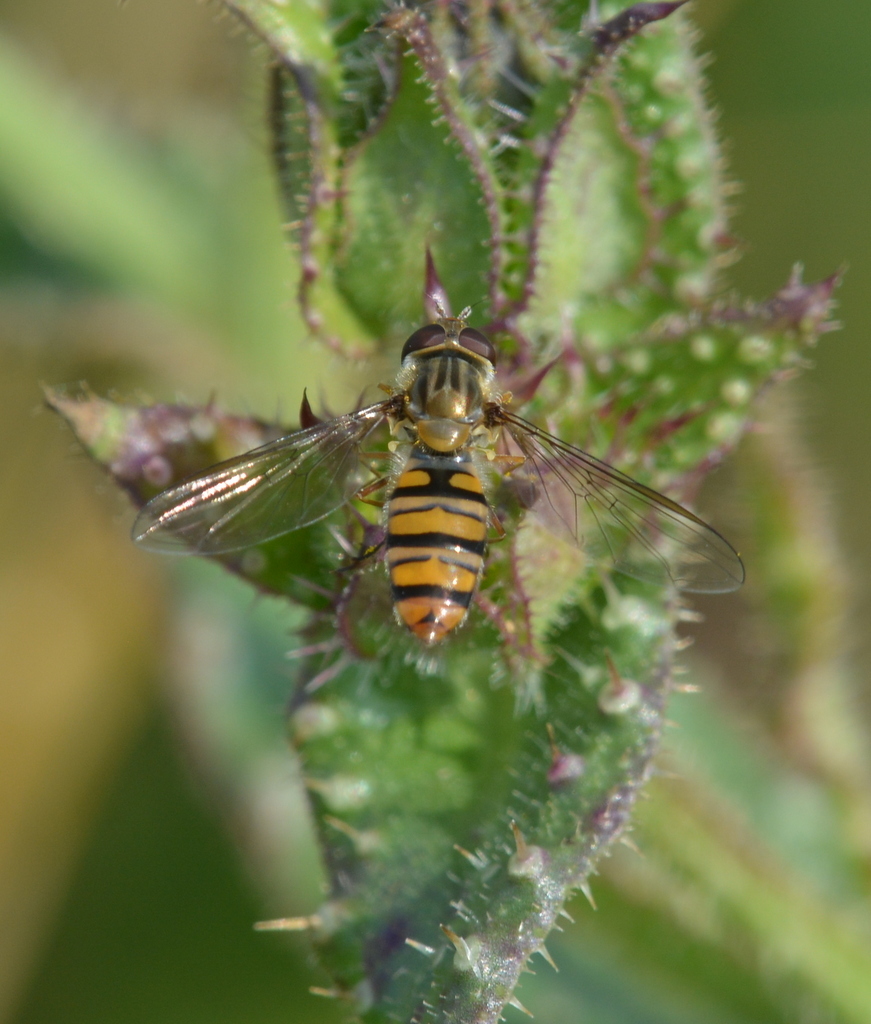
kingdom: Animalia
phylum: Arthropoda
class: Insecta
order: Diptera
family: Syrphidae
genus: Episyrphus
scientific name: Episyrphus balteatus
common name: Marmalade hoverfly
